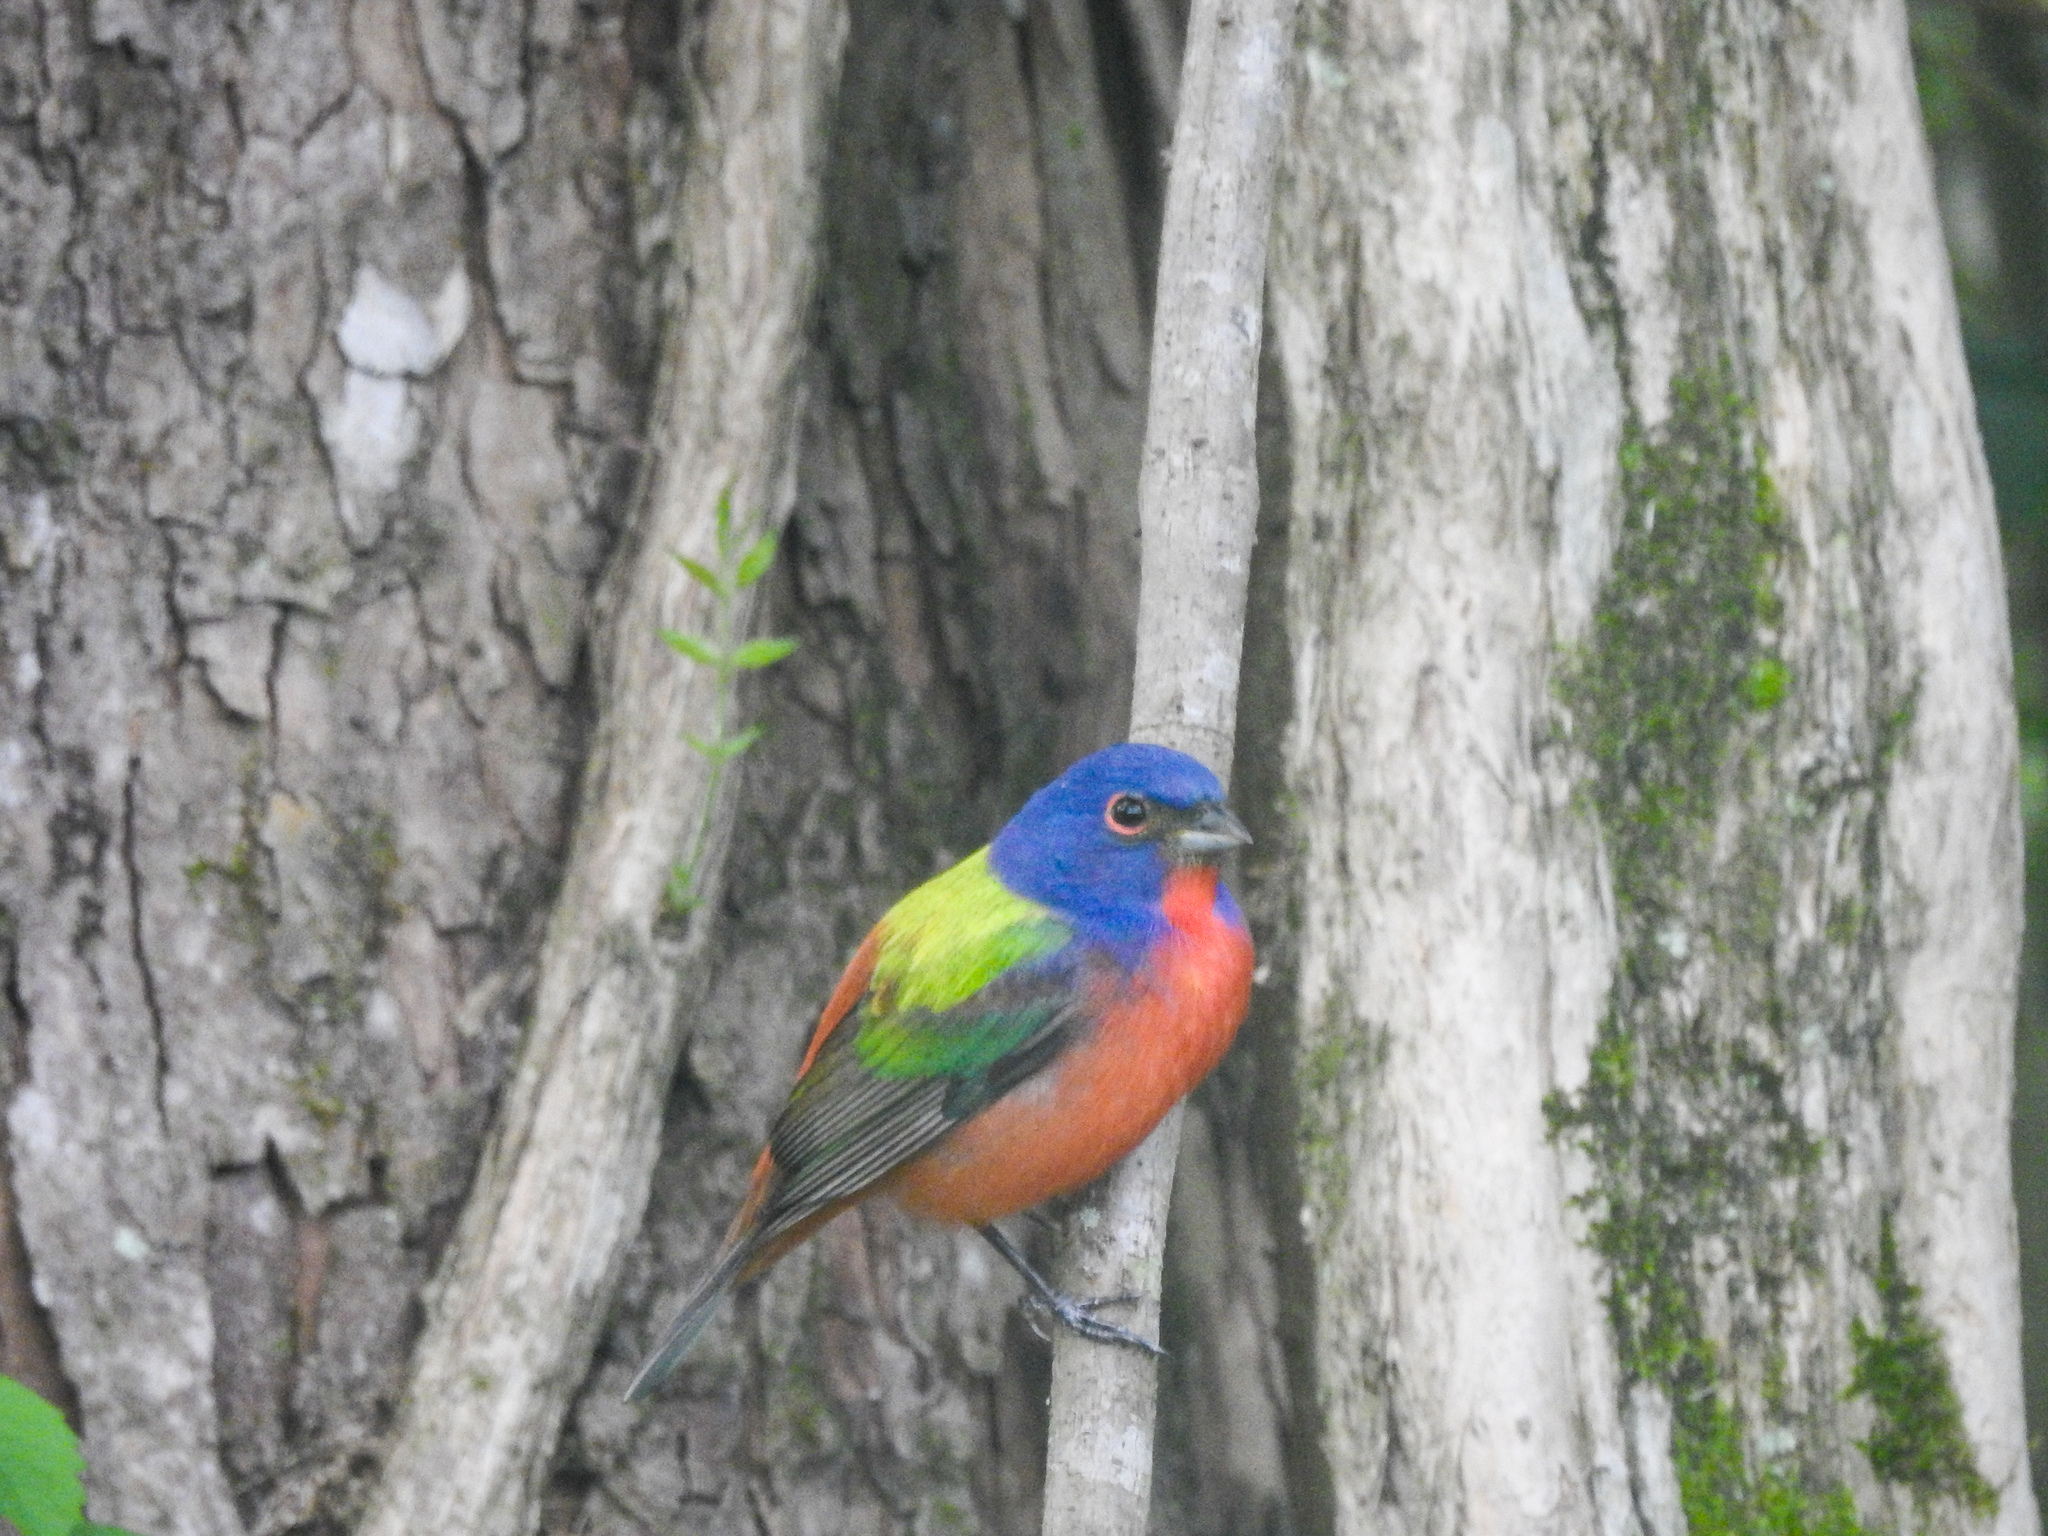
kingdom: Animalia
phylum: Chordata
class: Aves
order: Passeriformes
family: Cardinalidae
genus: Passerina
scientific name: Passerina ciris
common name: Painted bunting
